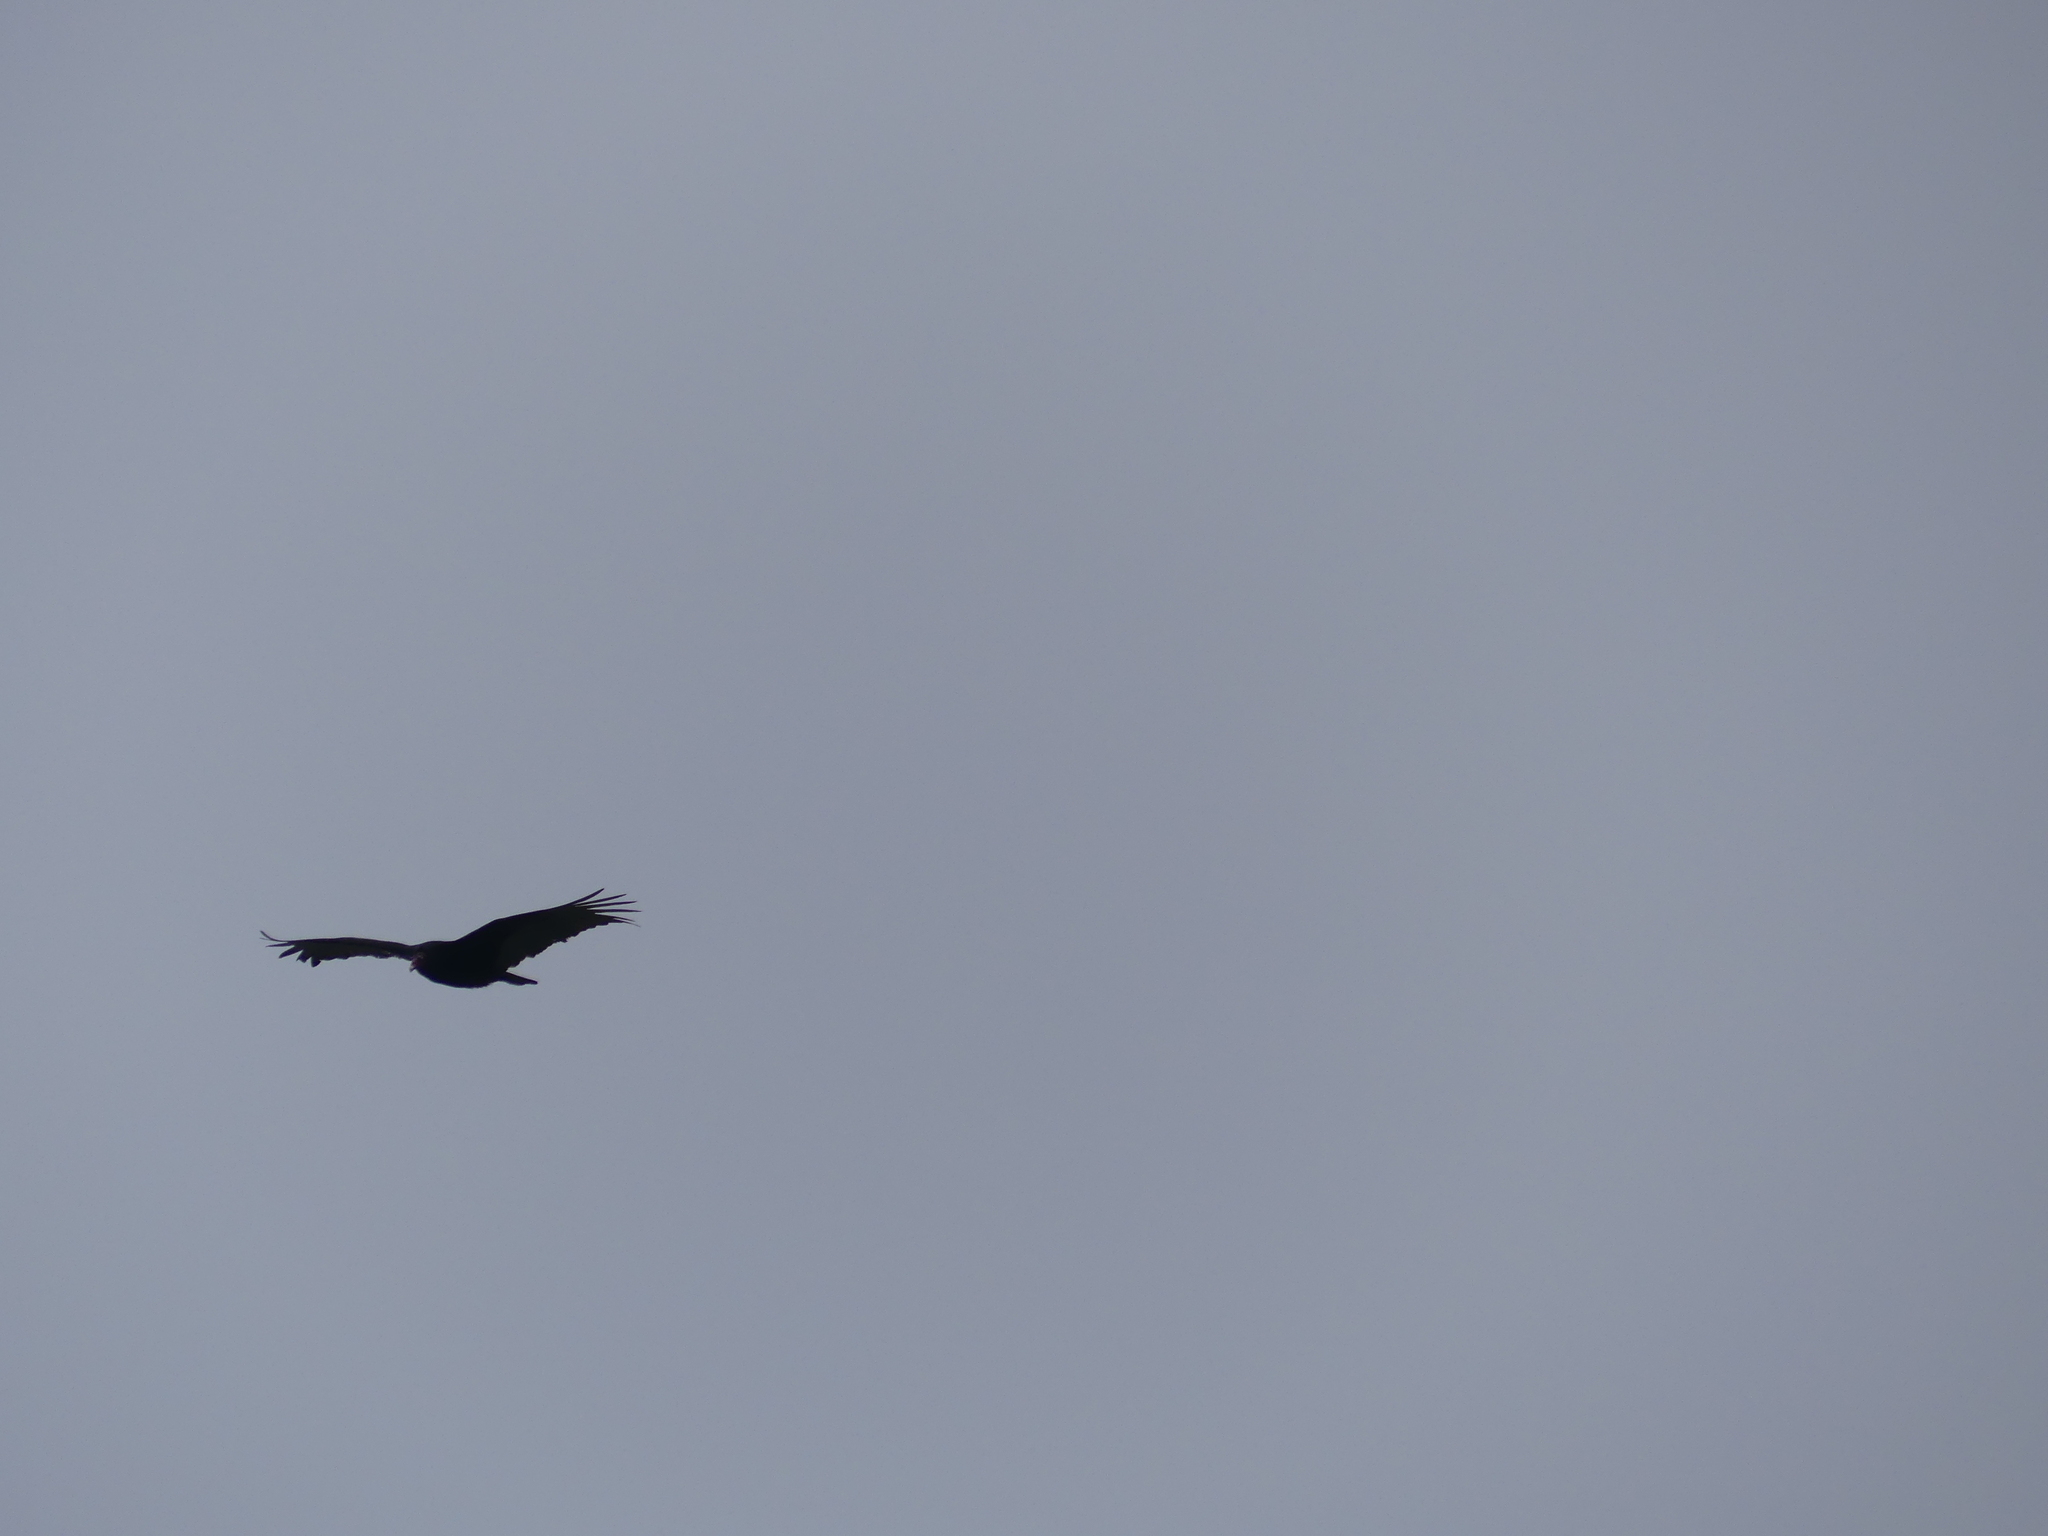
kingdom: Animalia
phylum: Chordata
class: Aves
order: Accipitriformes
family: Cathartidae
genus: Cathartes
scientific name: Cathartes aura
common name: Turkey vulture
